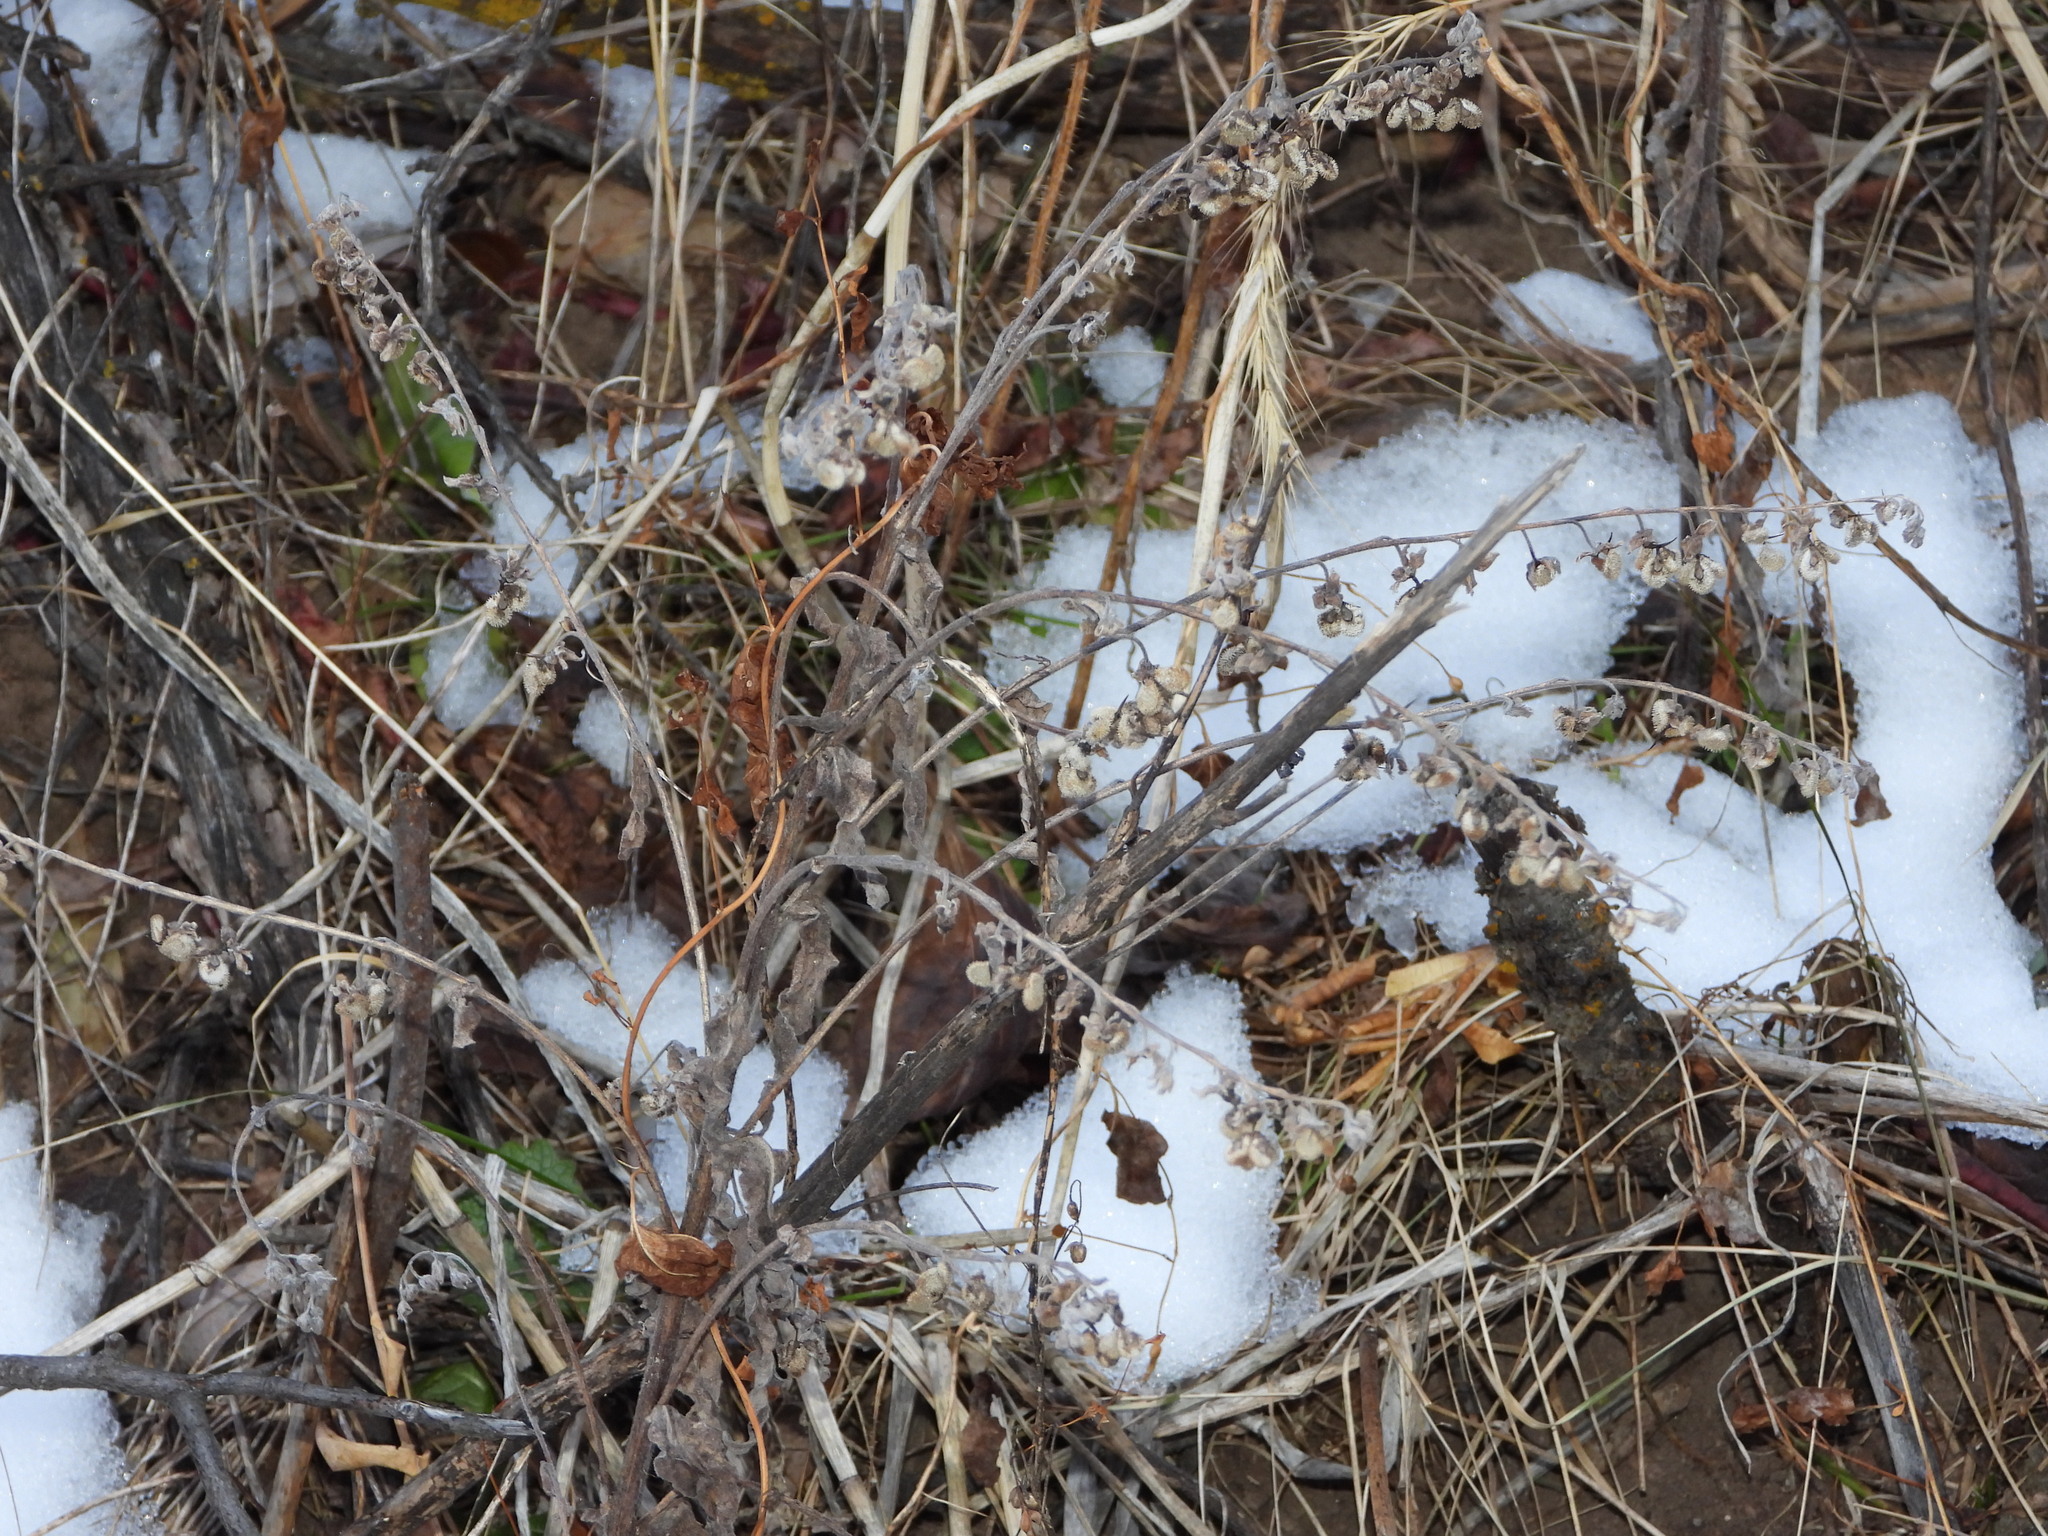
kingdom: Plantae
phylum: Tracheophyta
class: Magnoliopsida
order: Boraginales
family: Boraginaceae
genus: Cynoglossum
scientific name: Cynoglossum officinale
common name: Hound's-tongue
